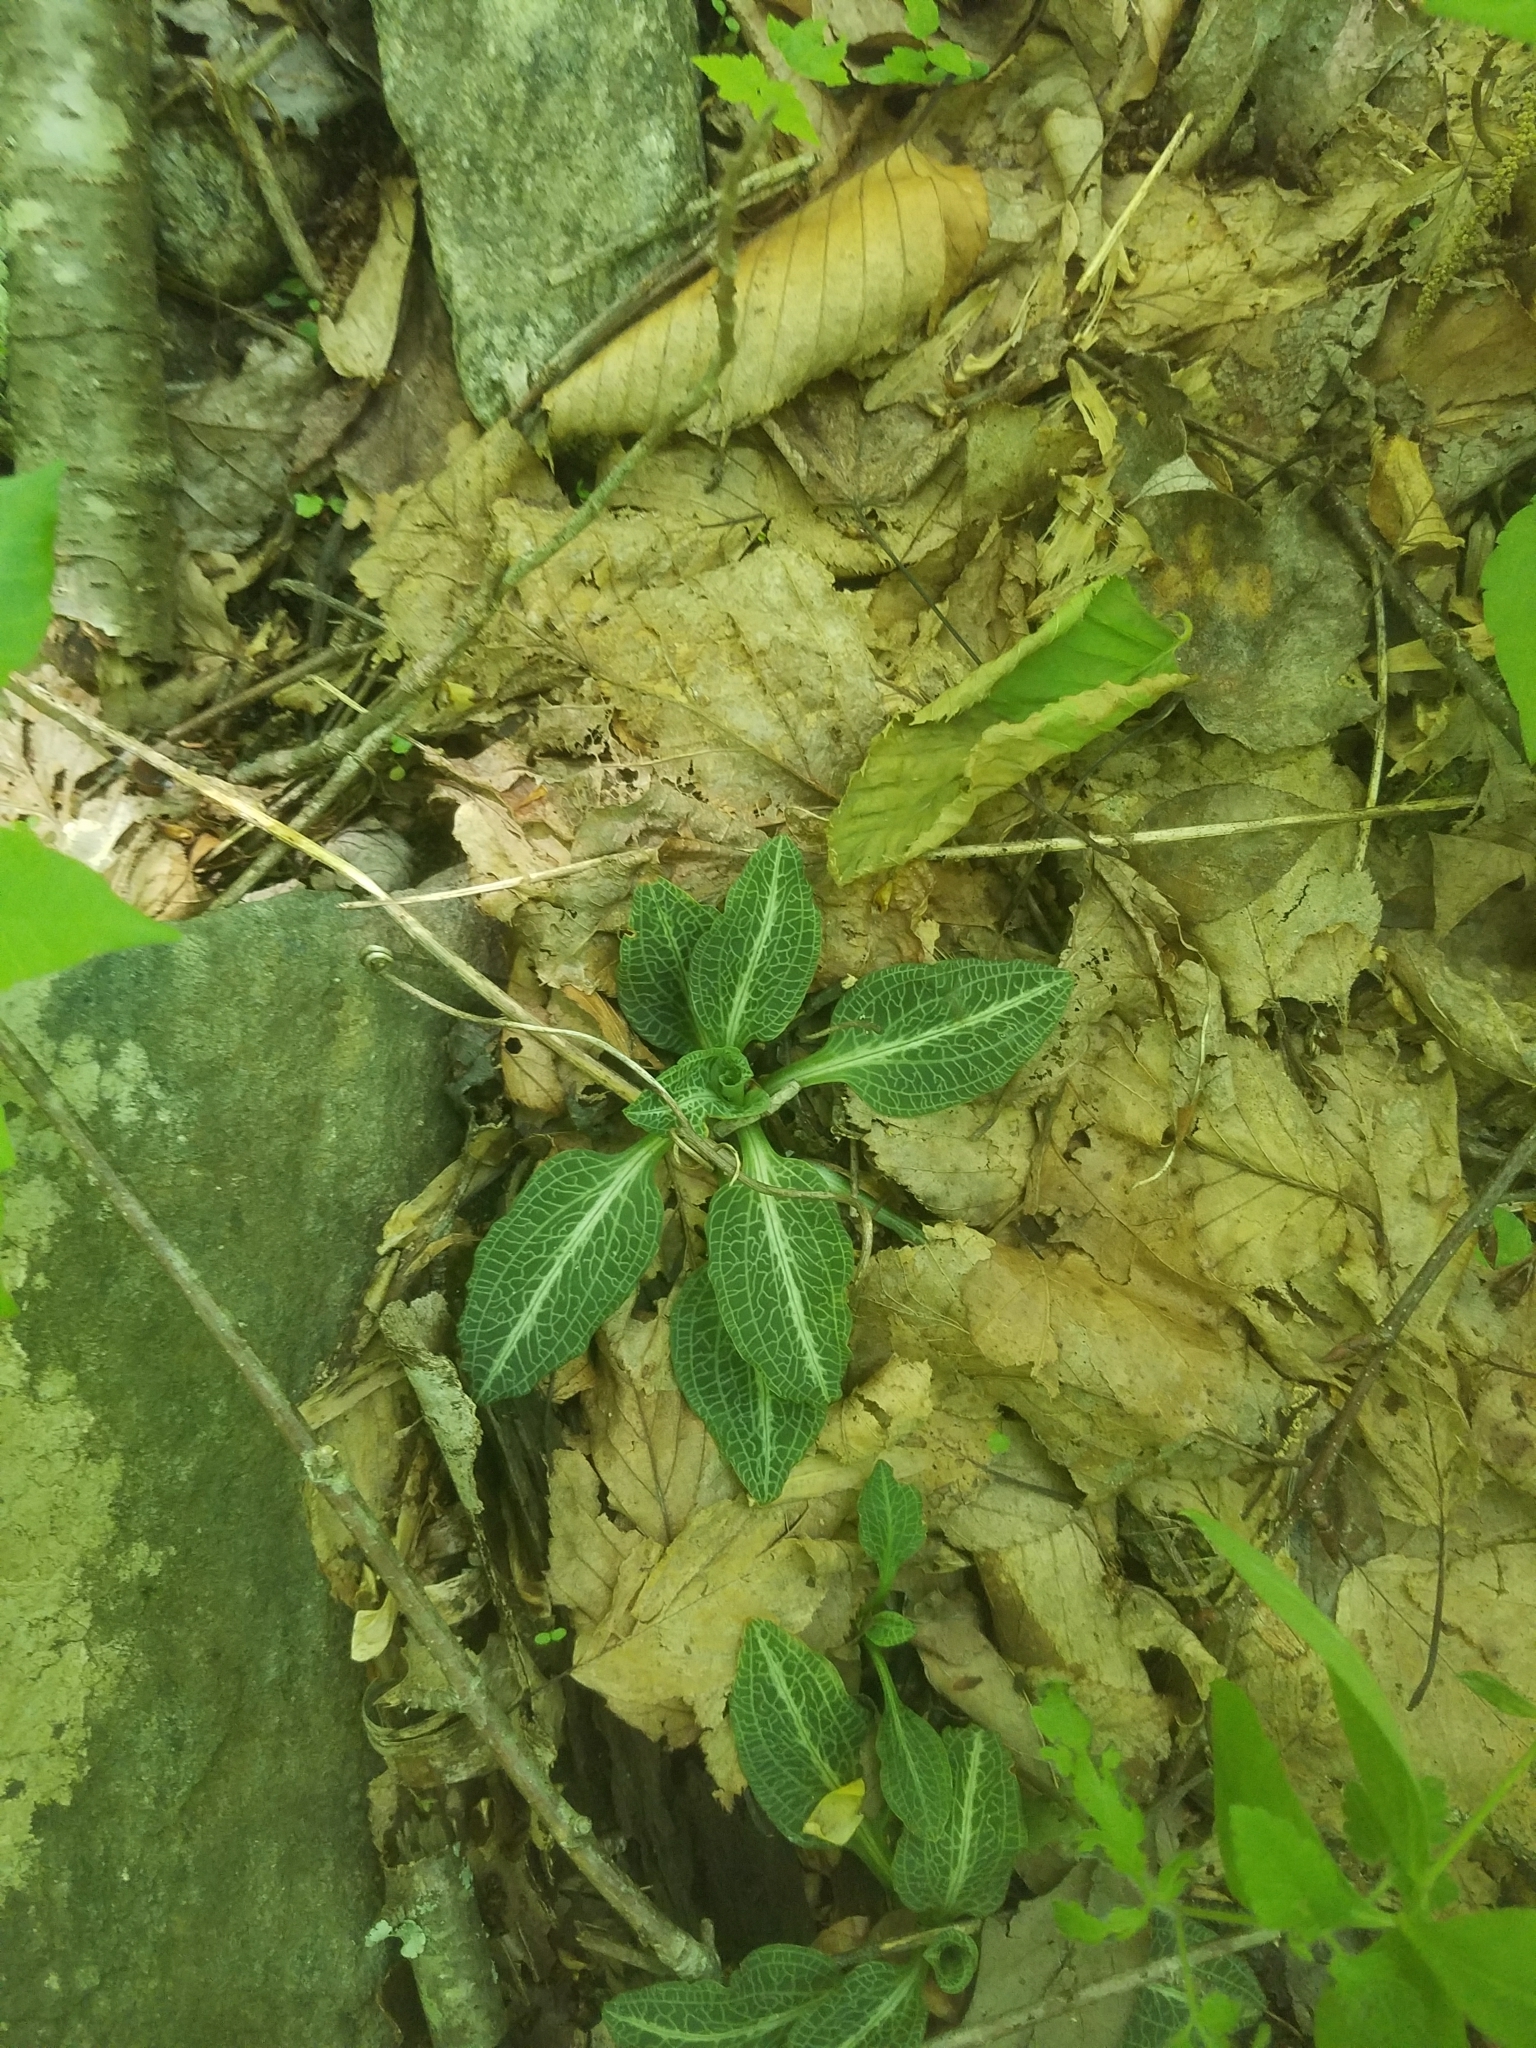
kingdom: Plantae
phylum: Tracheophyta
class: Liliopsida
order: Asparagales
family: Orchidaceae
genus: Goodyera
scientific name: Goodyera pubescens
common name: Downy rattlesnake-plantain
